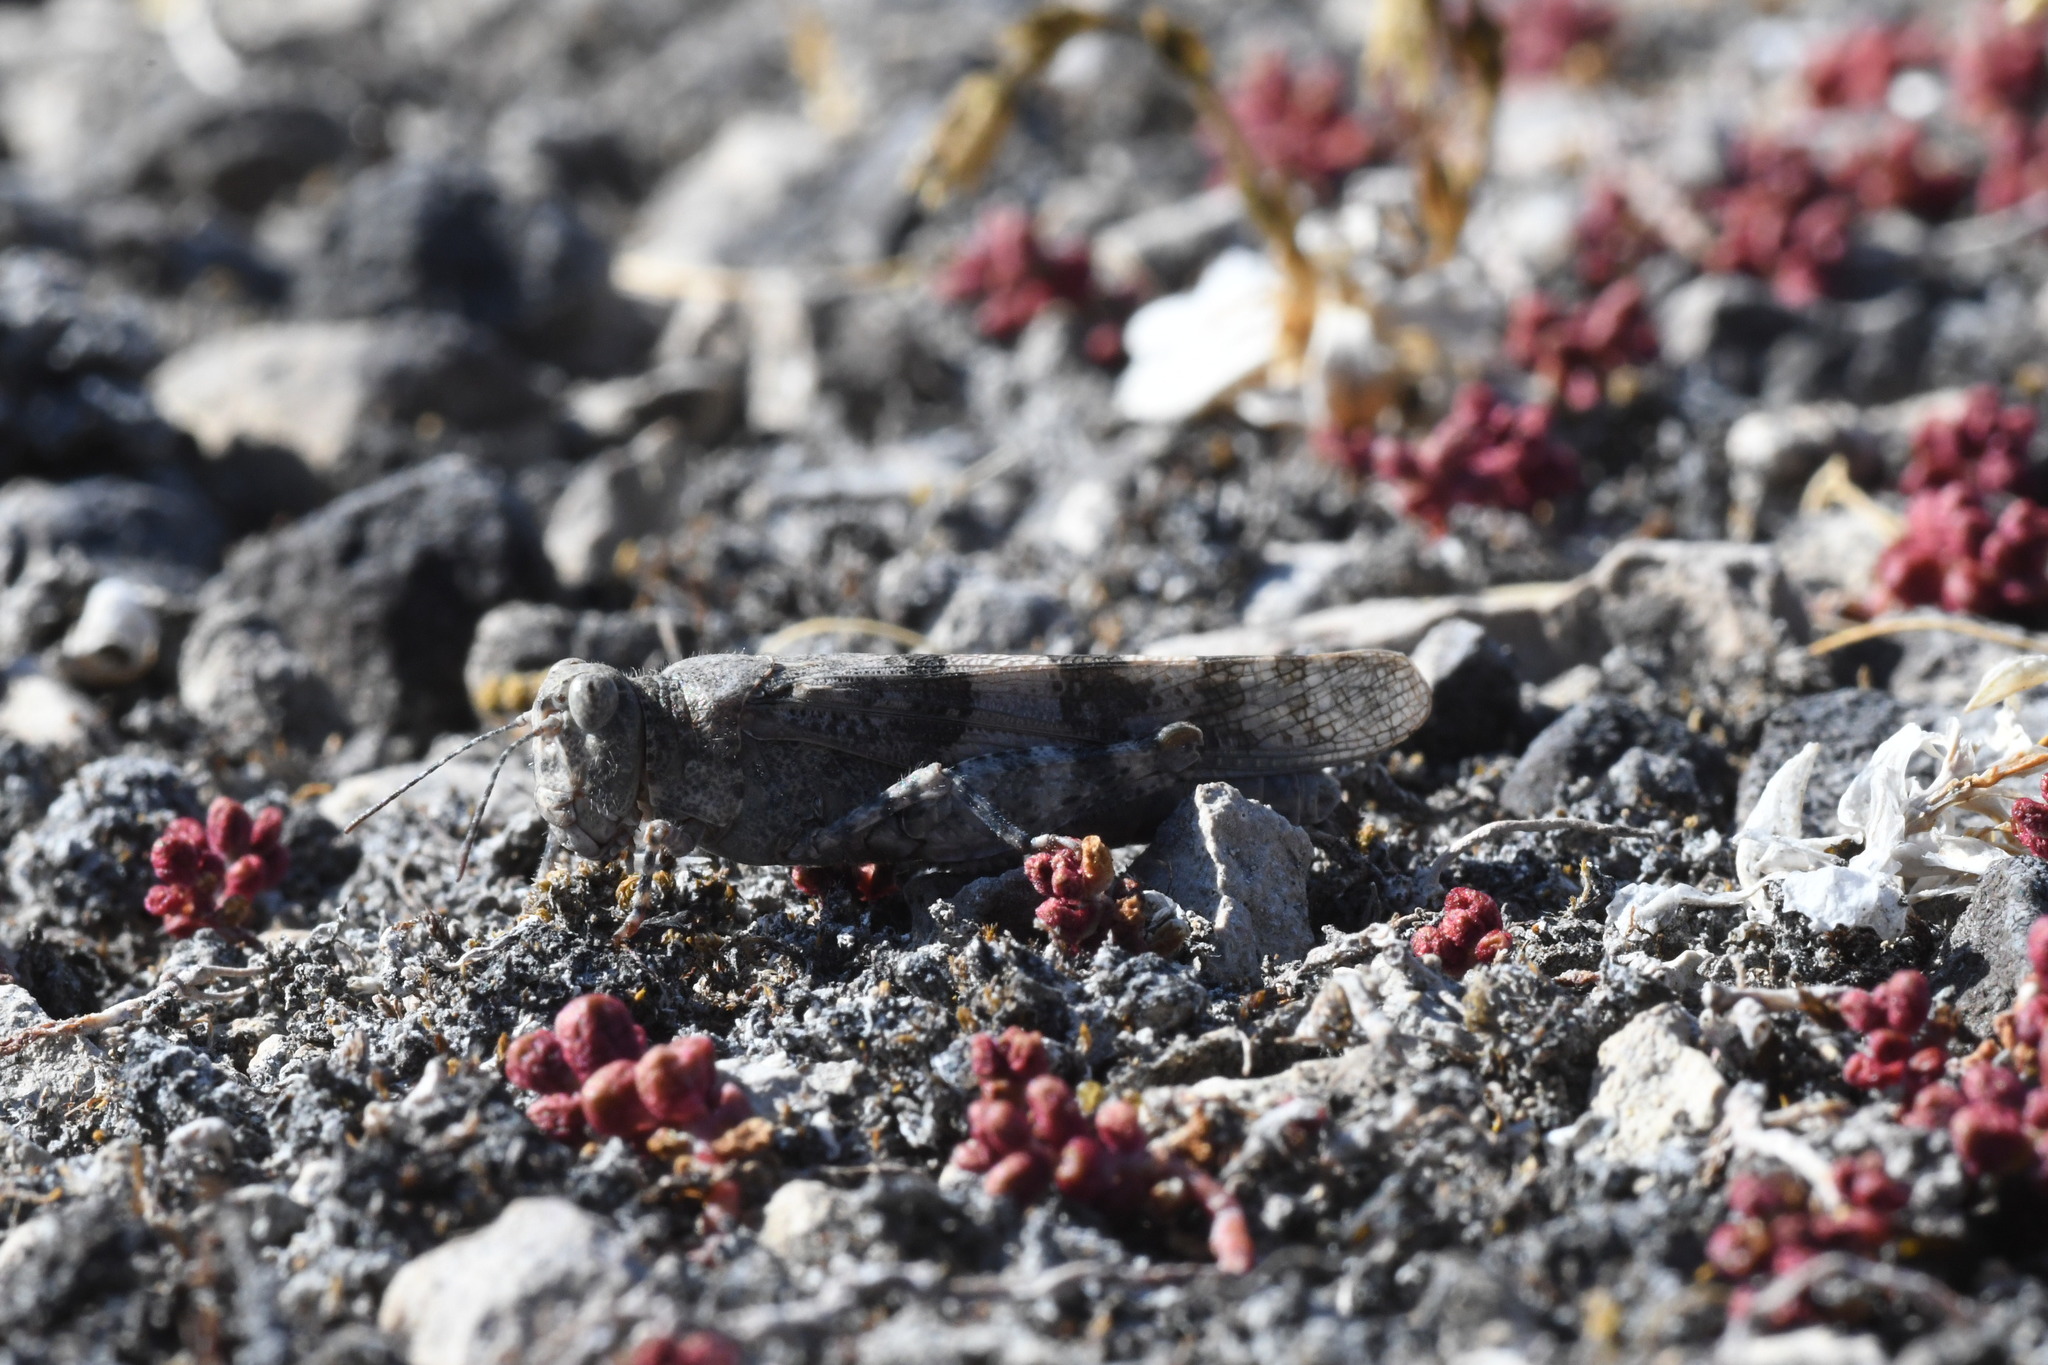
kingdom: Animalia
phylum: Arthropoda
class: Insecta
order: Orthoptera
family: Acrididae
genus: Sphingonotus
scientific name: Sphingonotus caerulans
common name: Blue-winged locust
